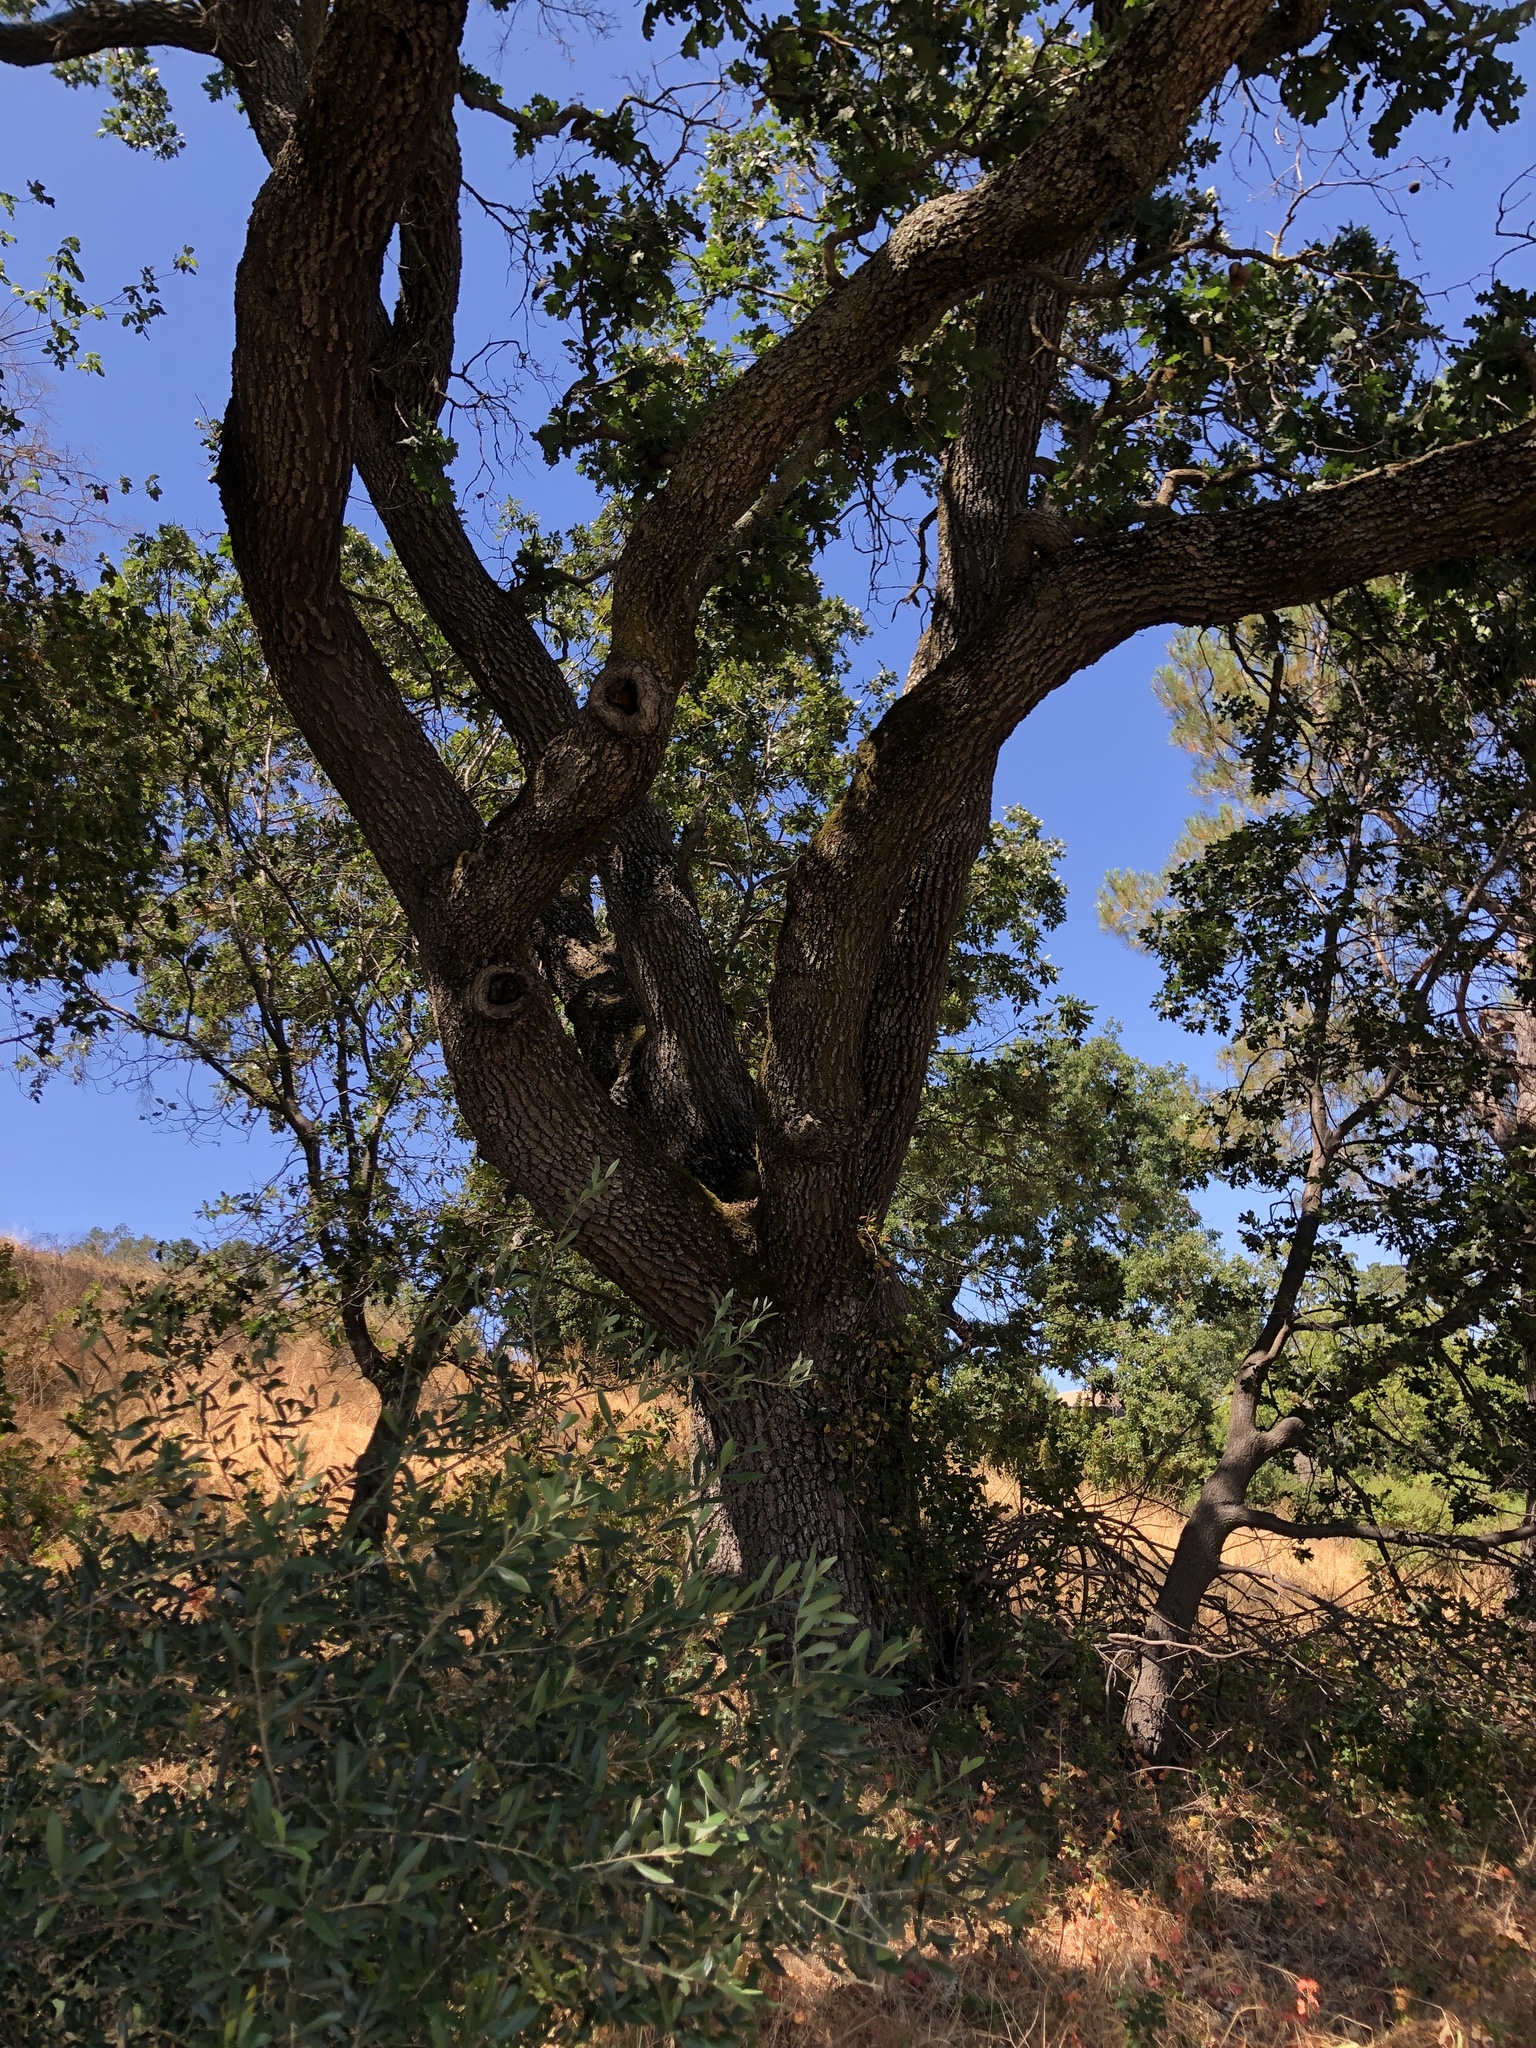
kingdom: Plantae
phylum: Tracheophyta
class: Magnoliopsida
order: Fagales
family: Fagaceae
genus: Quercus
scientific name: Quercus ganderi
